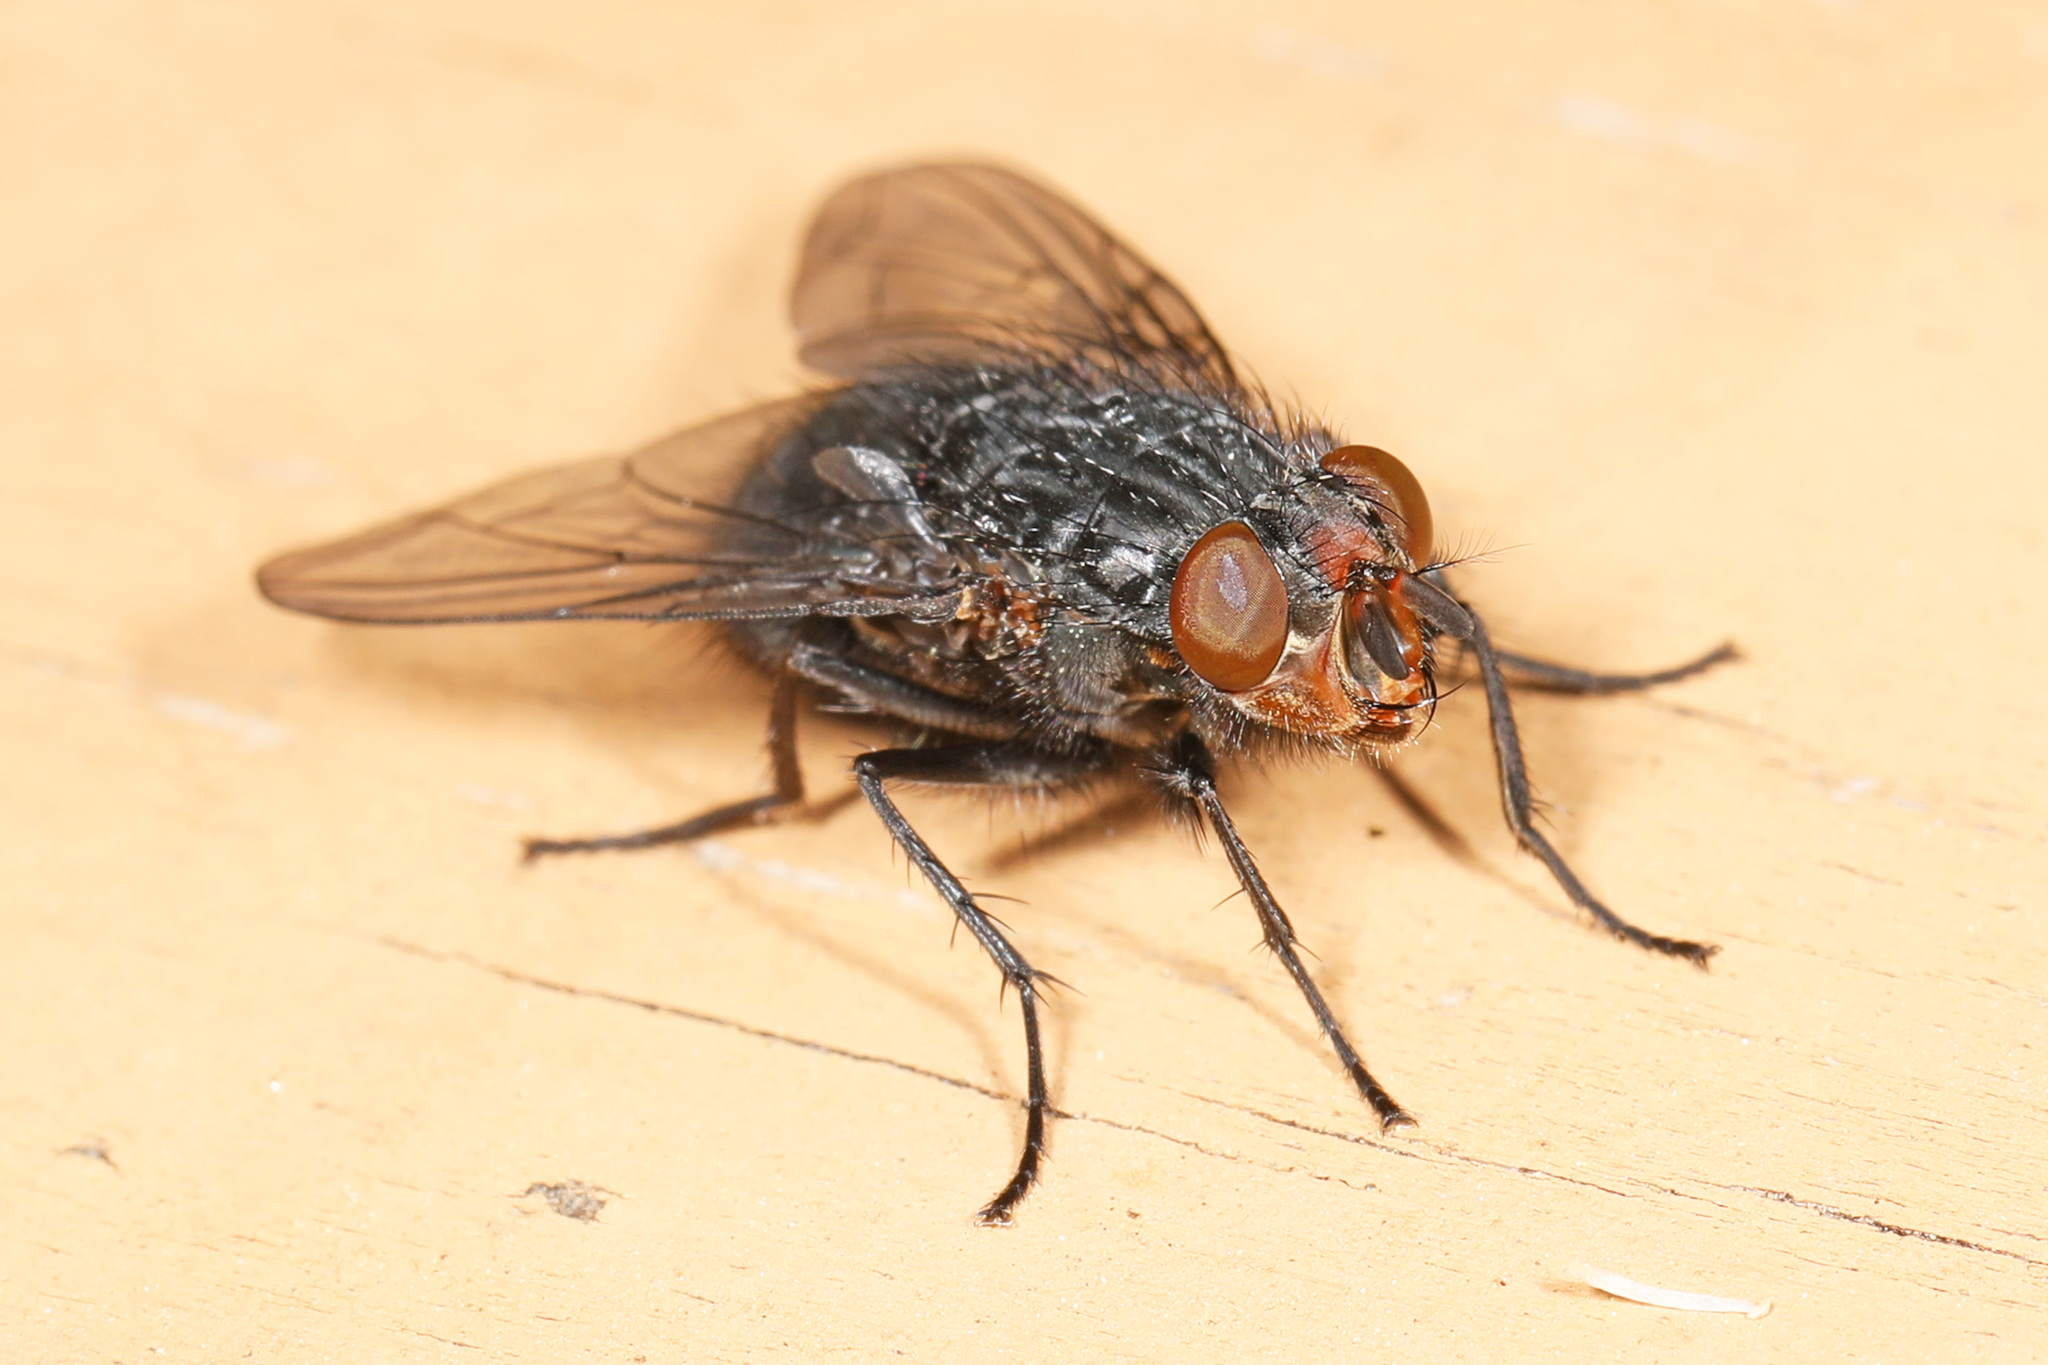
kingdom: Animalia
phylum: Arthropoda
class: Insecta
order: Diptera
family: Calliphoridae
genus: Calliphora
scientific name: Calliphora vicina
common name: Common blow flie
